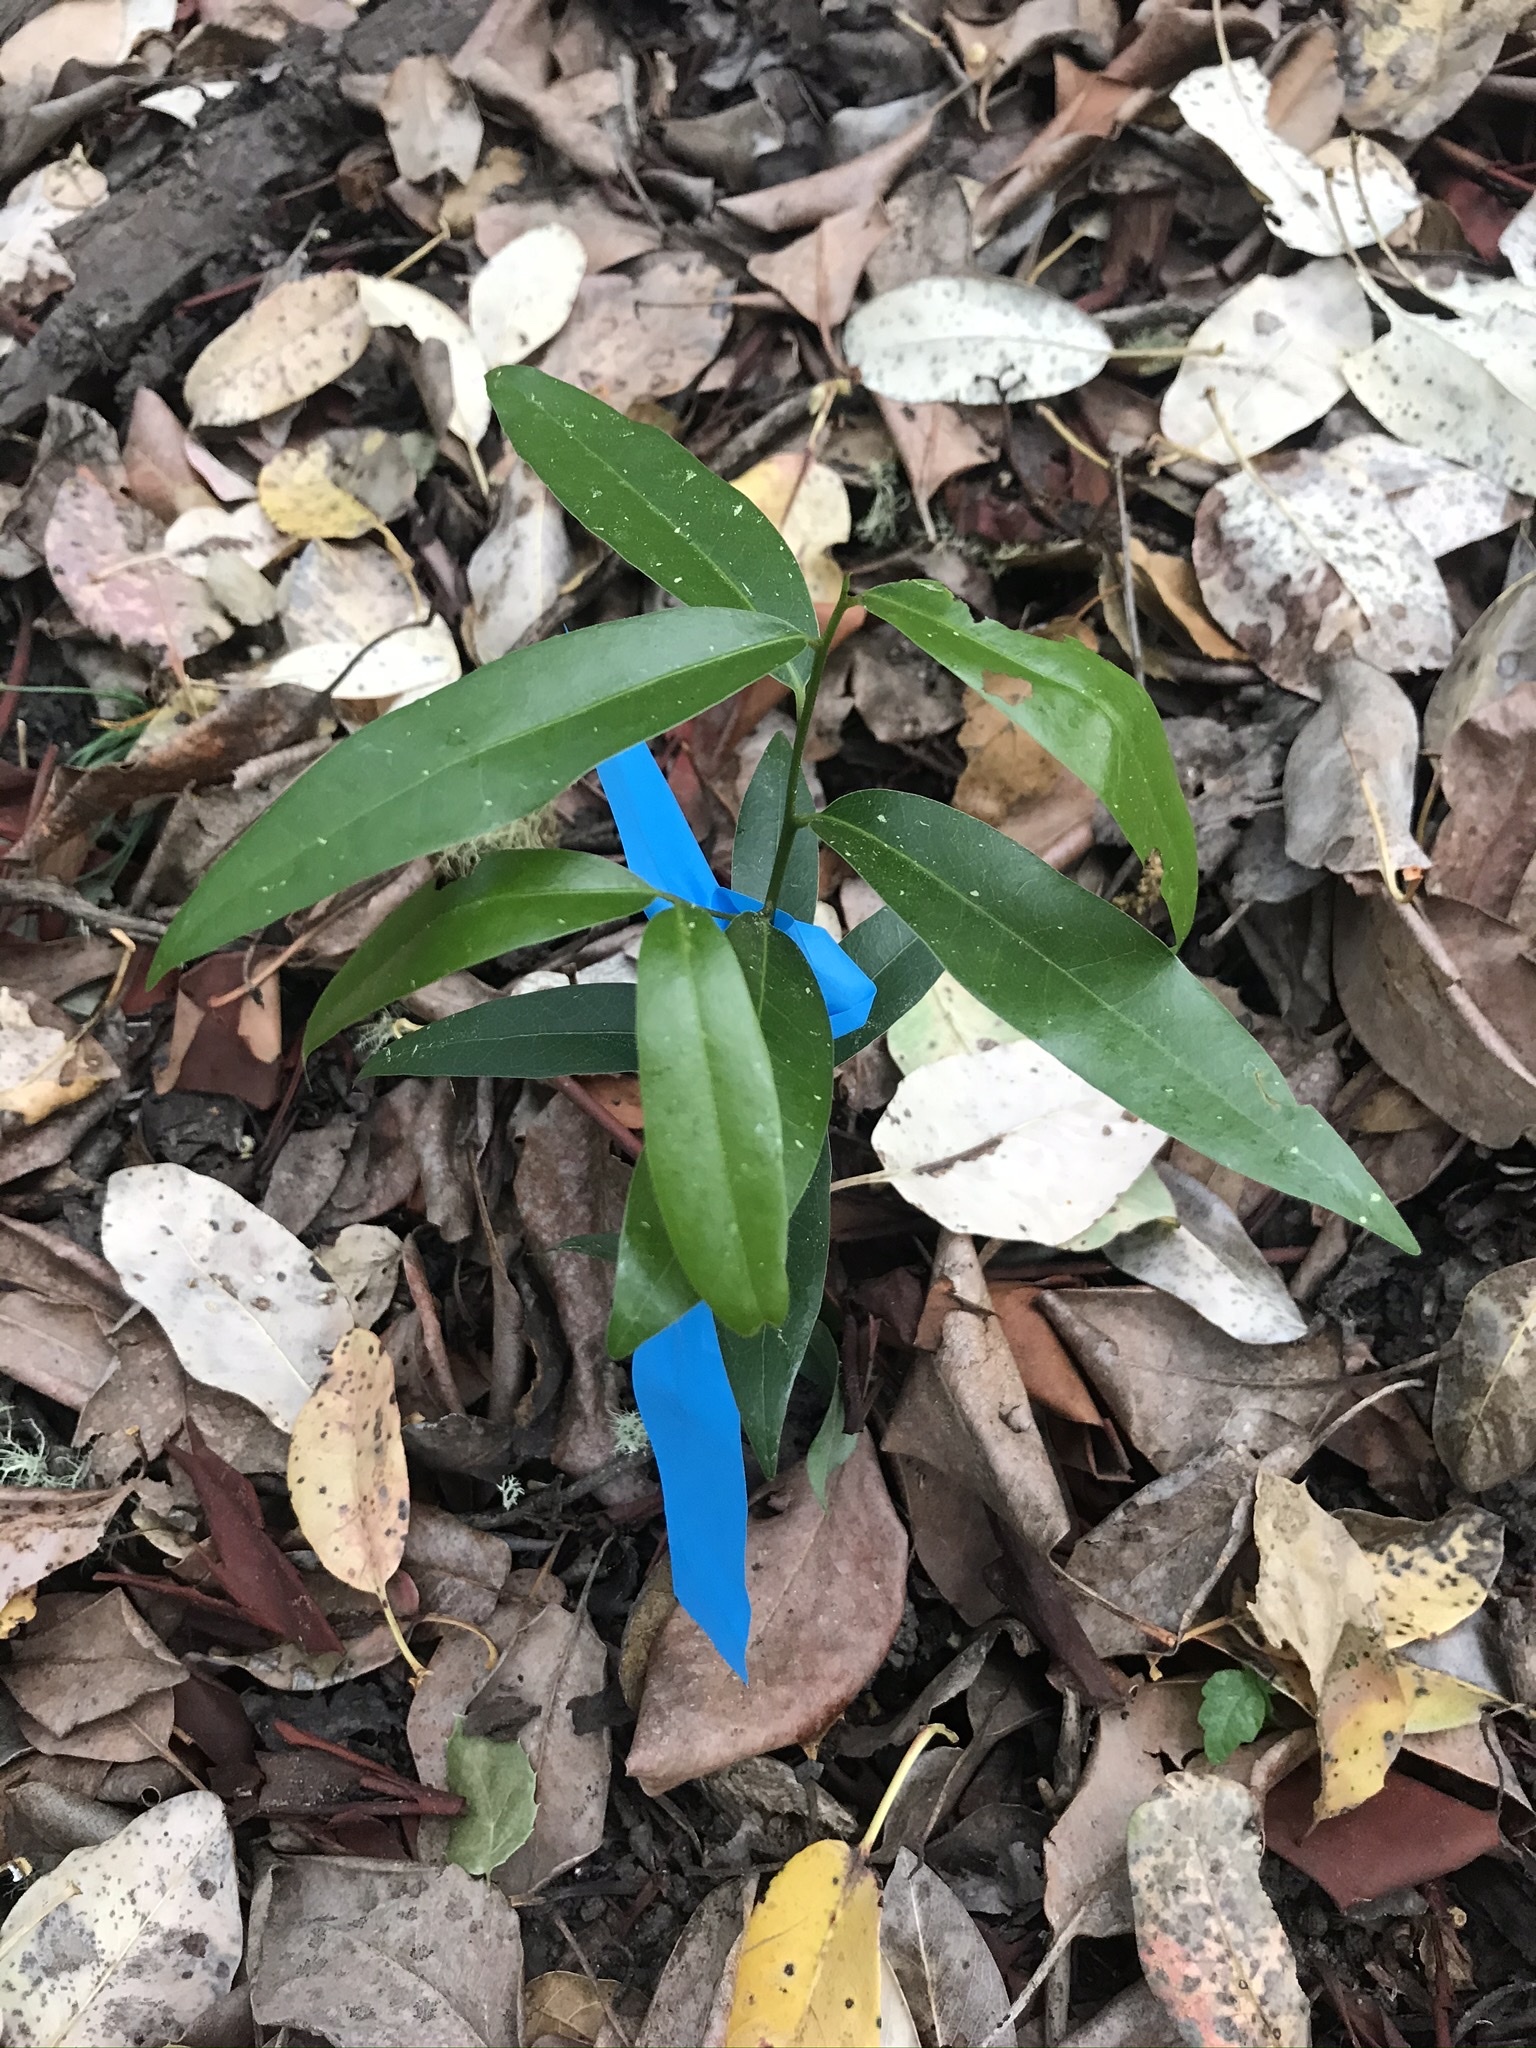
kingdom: Plantae
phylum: Tracheophyta
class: Magnoliopsida
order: Laurales
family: Lauraceae
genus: Umbellularia
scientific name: Umbellularia californica
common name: California bay
